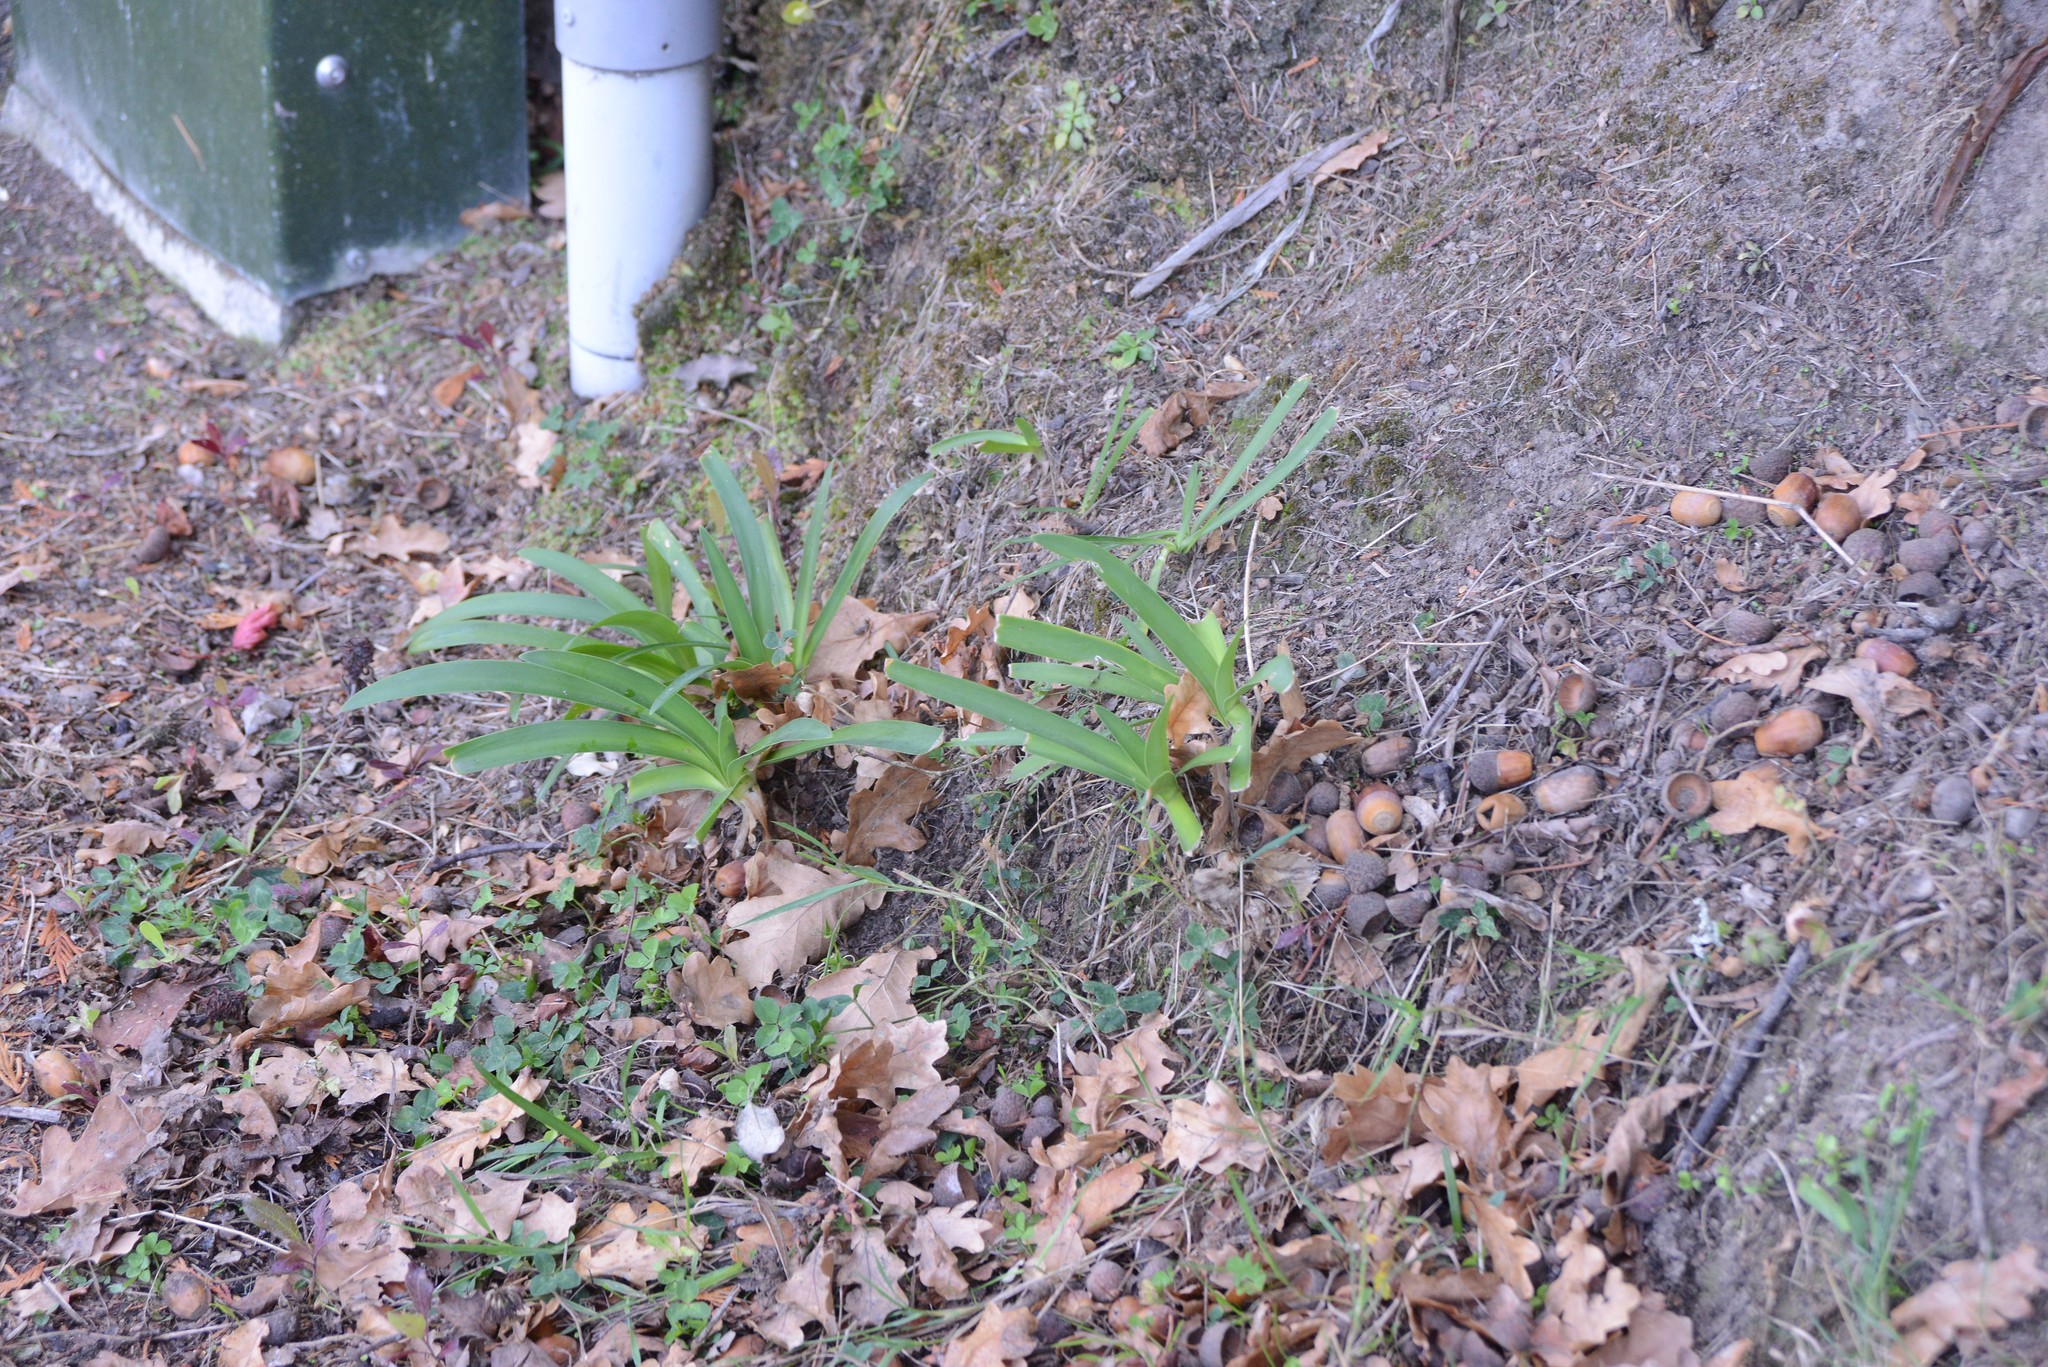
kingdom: Plantae
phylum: Tracheophyta
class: Liliopsida
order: Asparagales
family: Amaryllidaceae
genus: Agapanthus
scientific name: Agapanthus praecox
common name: African-lily
